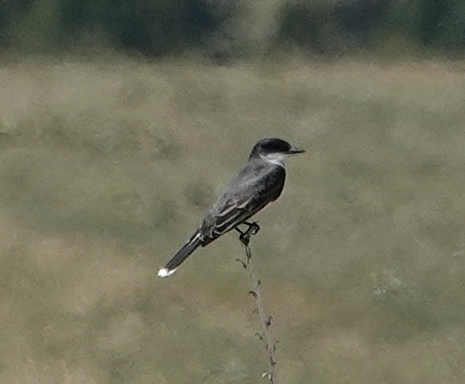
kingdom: Animalia
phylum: Chordata
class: Aves
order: Passeriformes
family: Tyrannidae
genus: Tyrannus
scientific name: Tyrannus tyrannus
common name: Eastern kingbird
